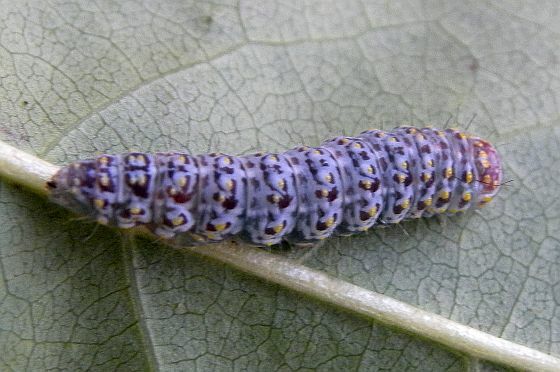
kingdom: Animalia
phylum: Arthropoda
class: Insecta
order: Lepidoptera
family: Noctuidae
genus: Polygrammate
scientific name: Polygrammate hebraeicum
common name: Hebrew moth
